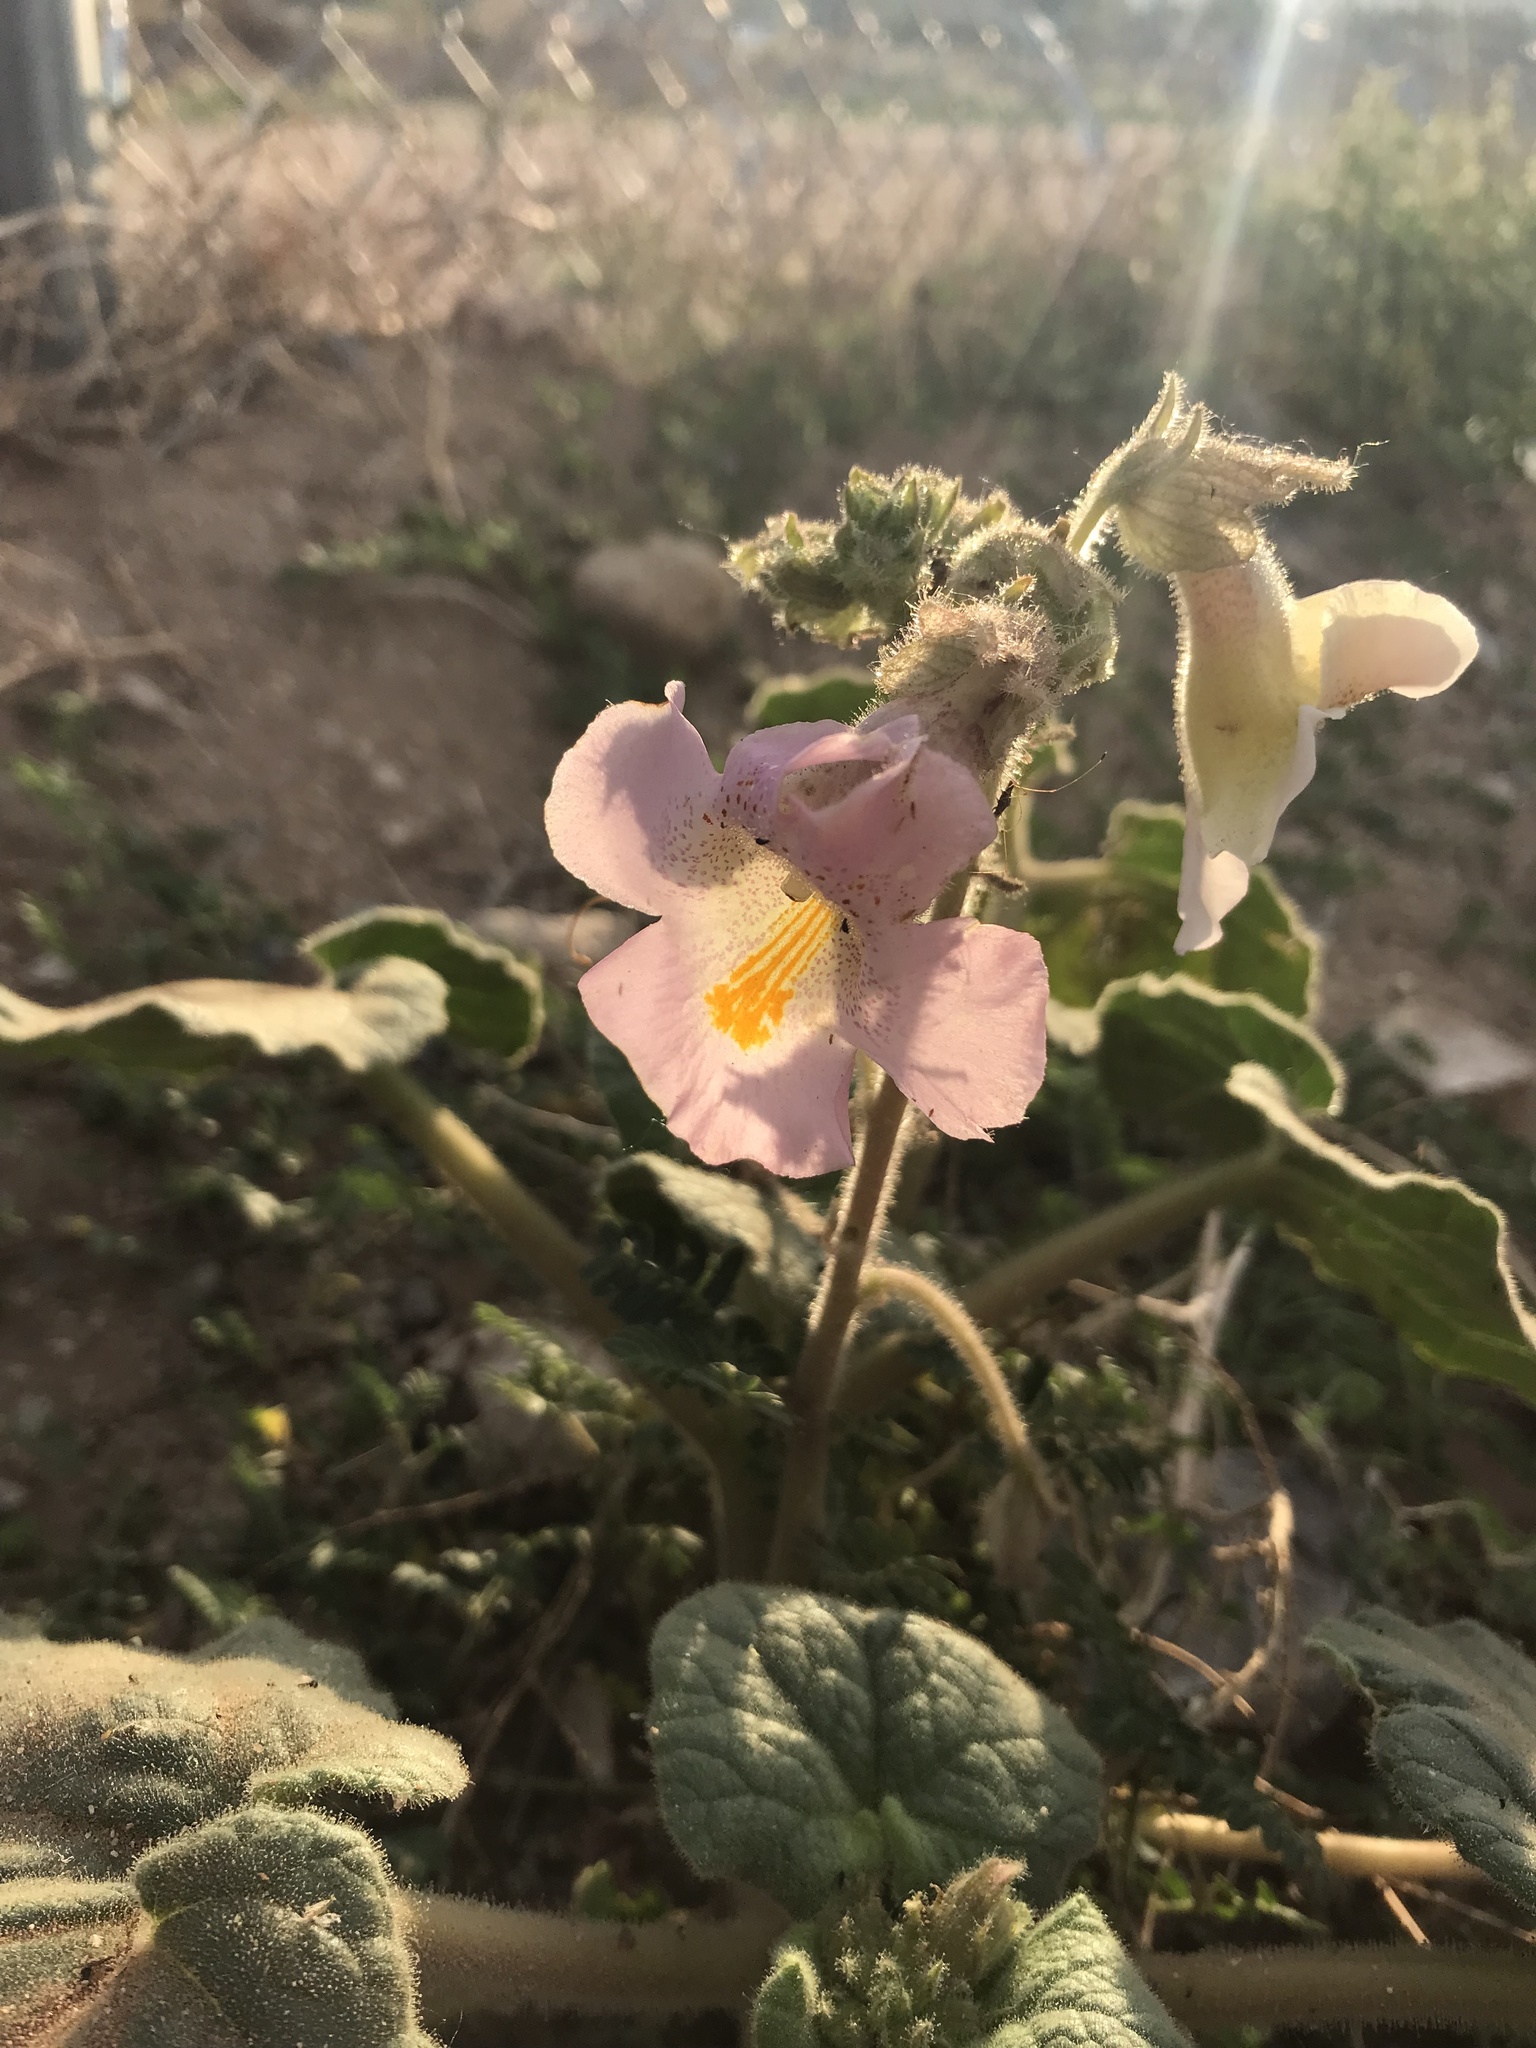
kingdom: Plantae
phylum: Tracheophyta
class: Magnoliopsida
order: Lamiales
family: Martyniaceae
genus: Proboscidea
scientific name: Proboscidea louisianica
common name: Elephant tusks
